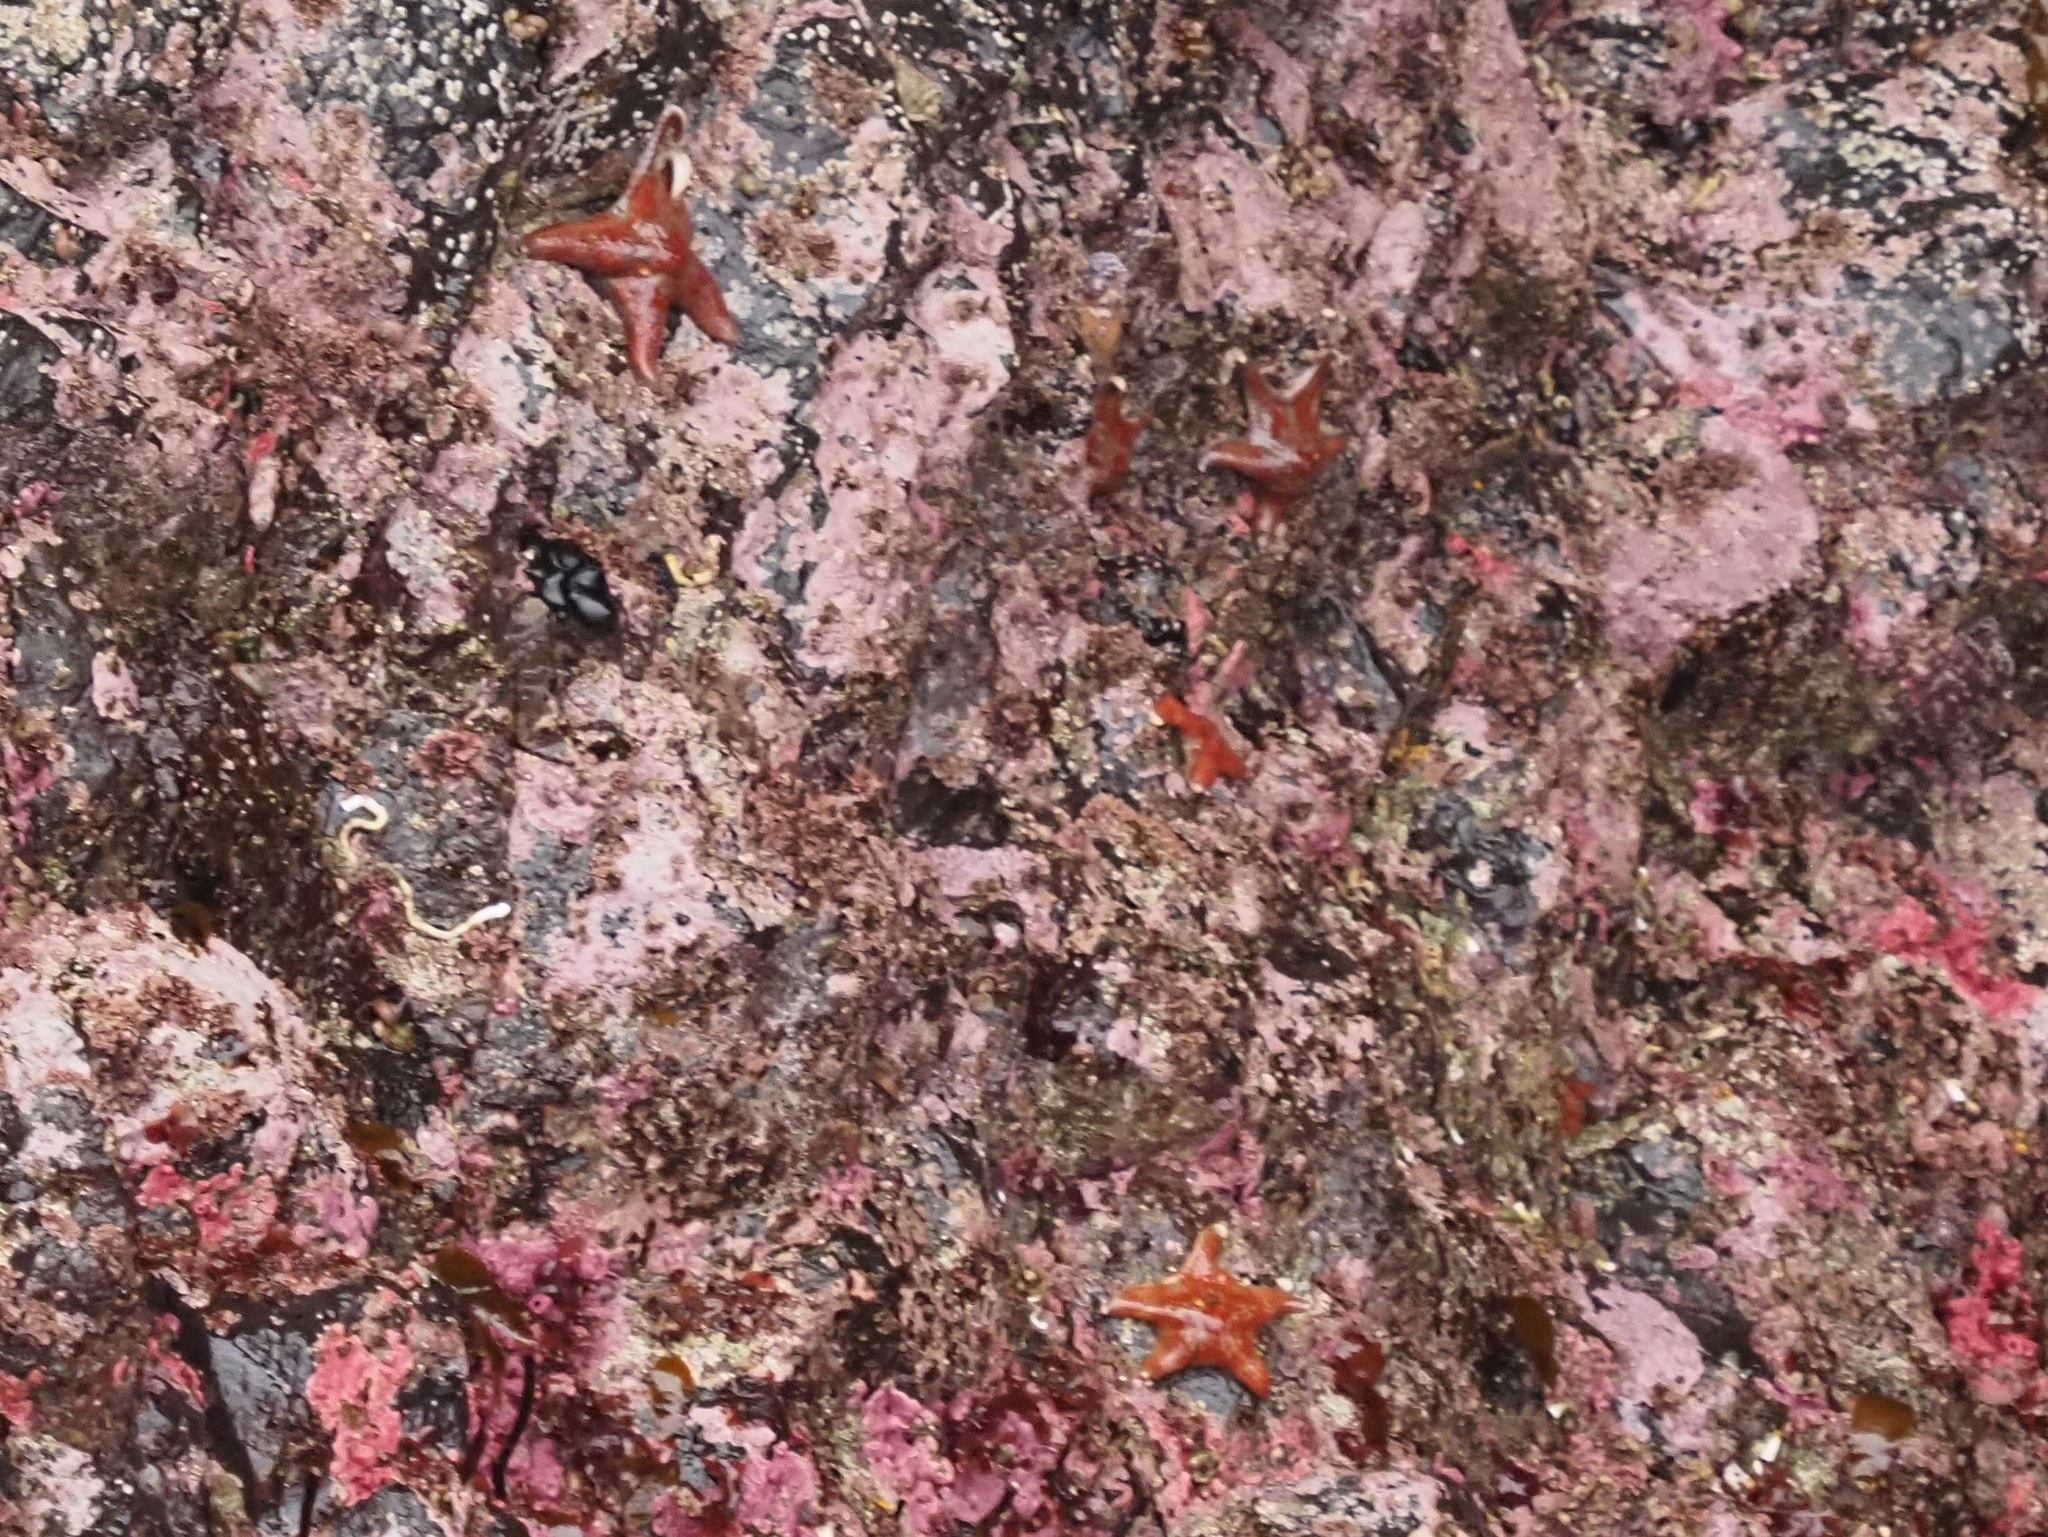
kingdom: Animalia
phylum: Echinodermata
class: Asteroidea
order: Valvatida
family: Asteropseidae
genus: Dermasterias
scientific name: Dermasterias imbricata
